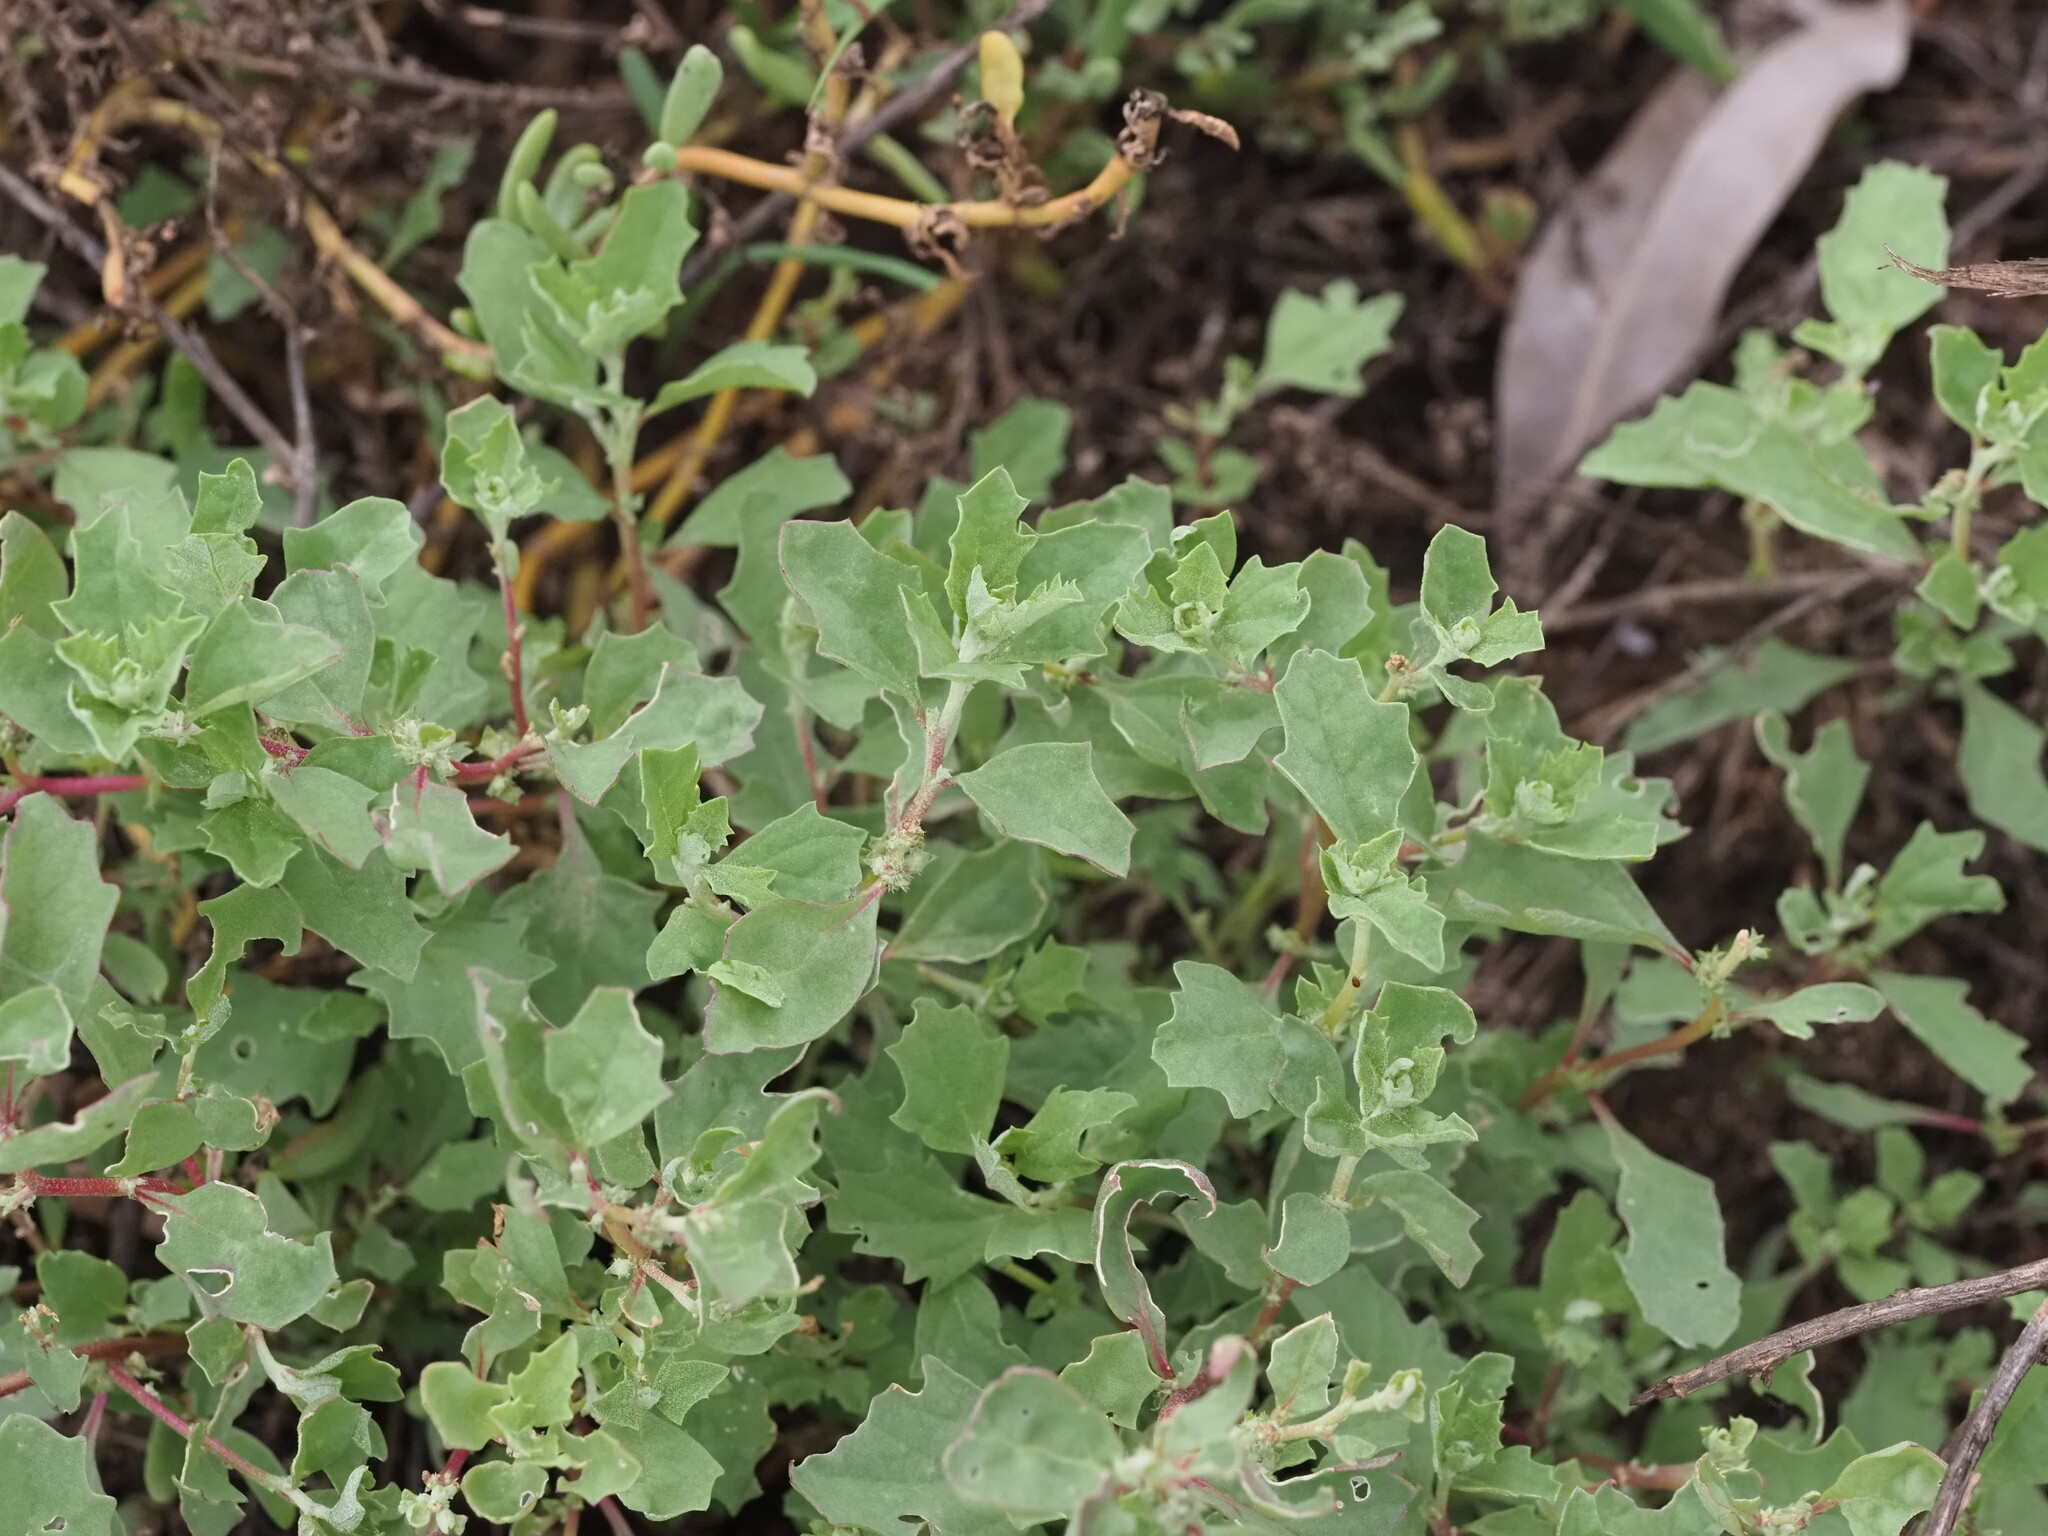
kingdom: Plantae
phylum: Tracheophyta
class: Magnoliopsida
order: Caryophyllales
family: Amaranthaceae
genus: Atriplex
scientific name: Atriplex suberecta
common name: Australian orache
